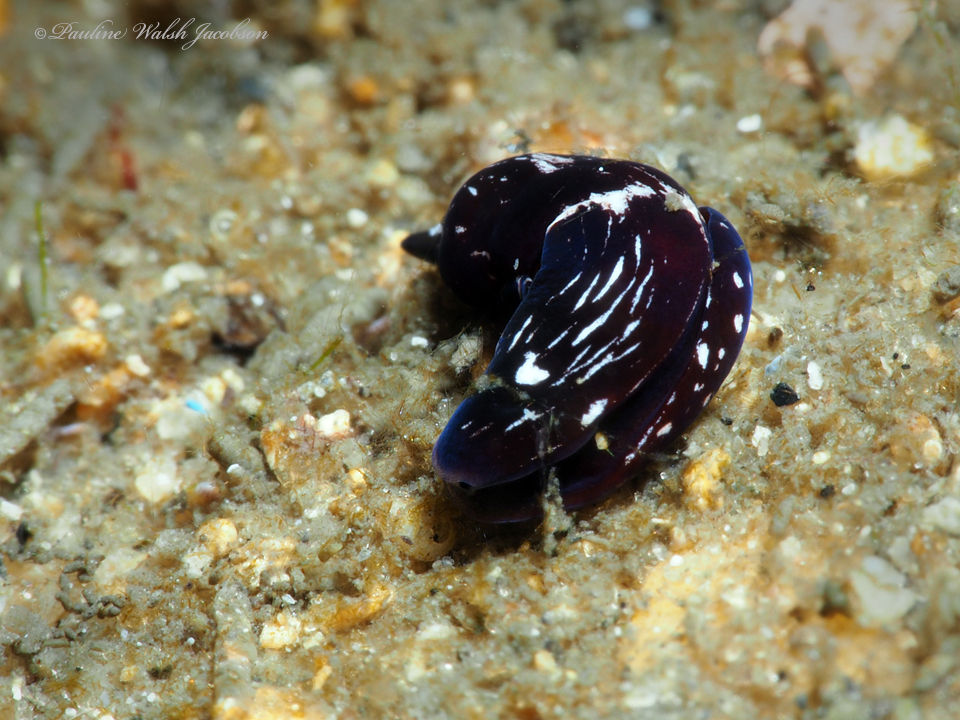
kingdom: Animalia
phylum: Mollusca
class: Gastropoda
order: Cephalaspidea
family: Aglajidae
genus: Nakamigawaia
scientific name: Nakamigawaia felis
